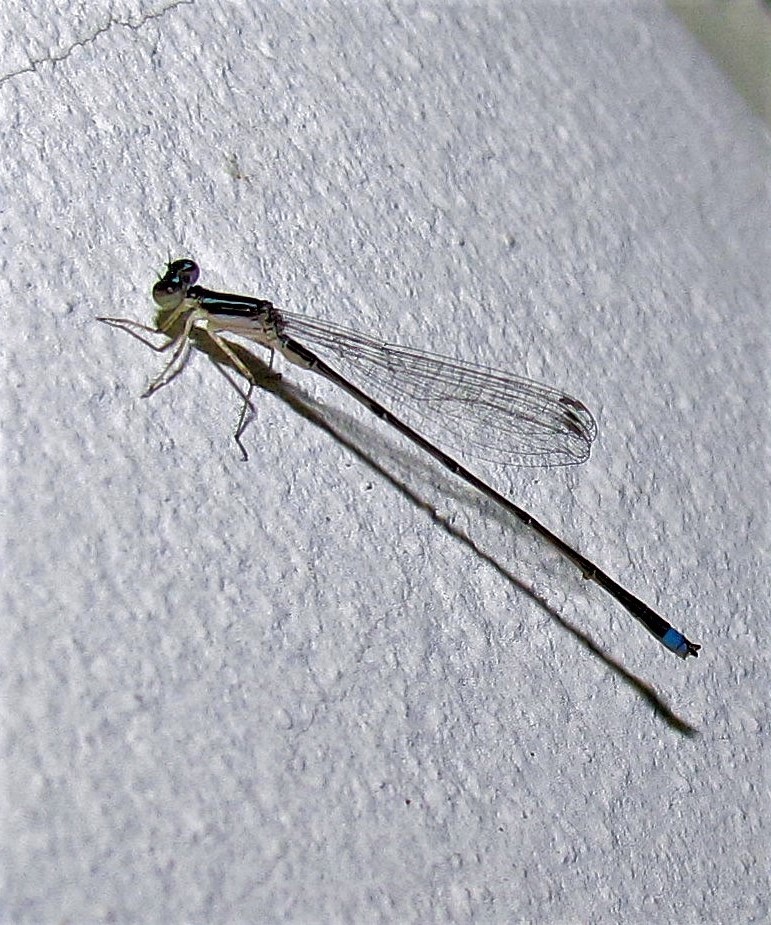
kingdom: Animalia
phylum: Arthropoda
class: Insecta
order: Odonata
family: Coenagrionidae
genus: Argentagrion
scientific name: Argentagrion ambiguum
